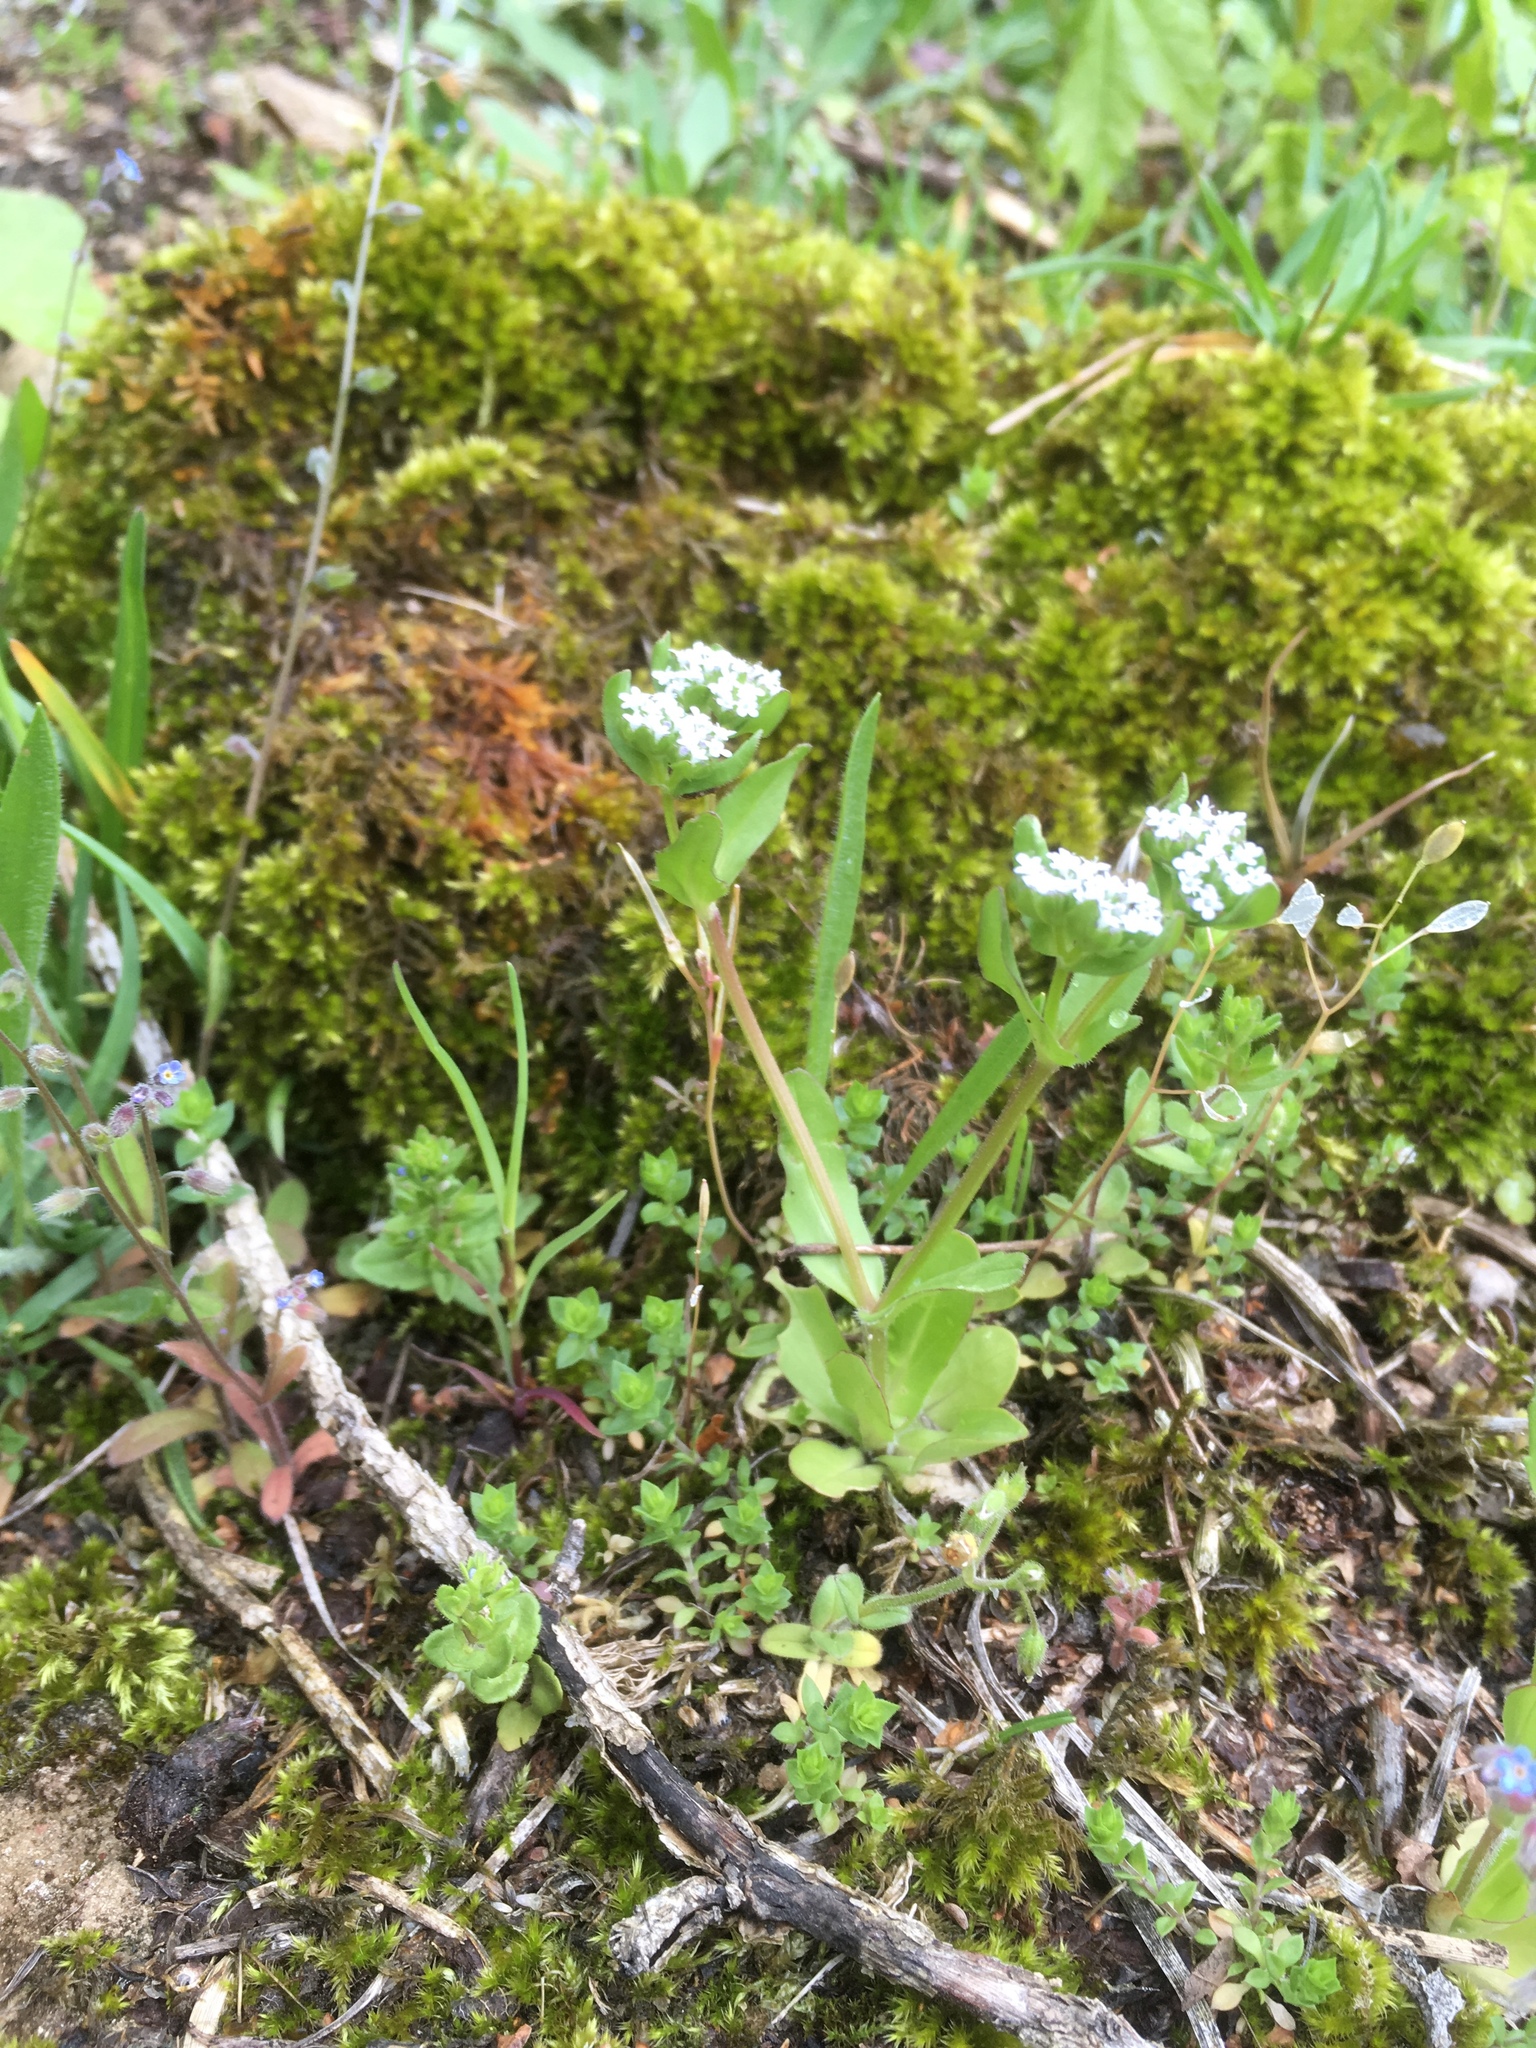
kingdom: Plantae
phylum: Tracheophyta
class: Magnoliopsida
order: Dipsacales
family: Caprifoliaceae
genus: Valerianella
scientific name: Valerianella locusta
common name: Common cornsalad
